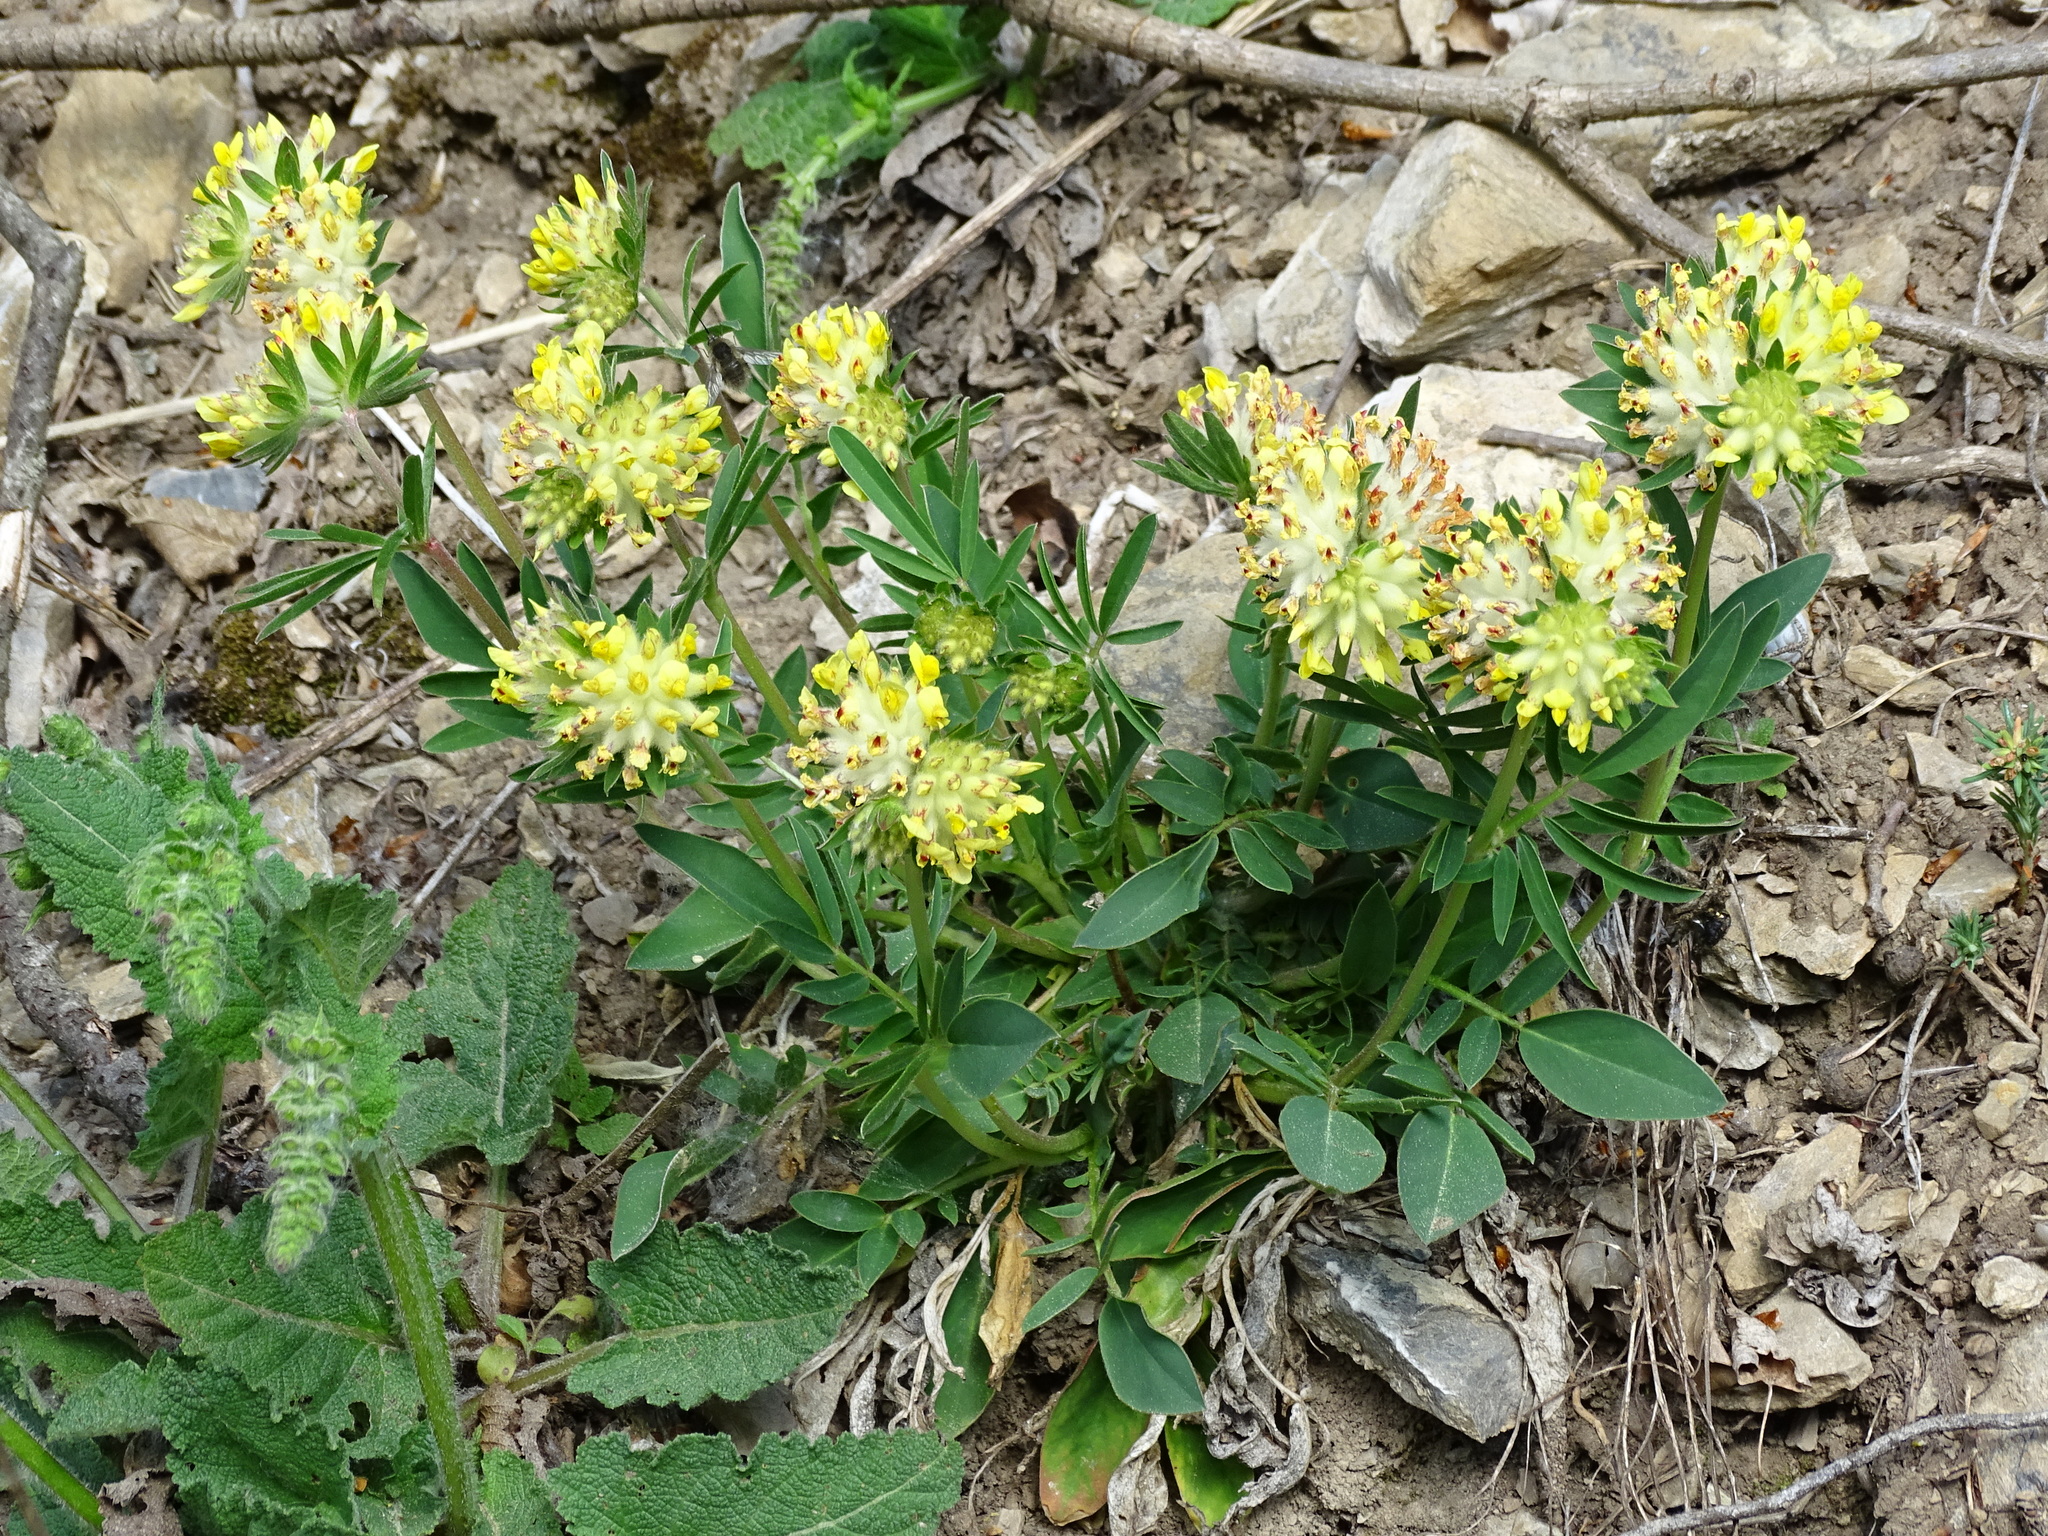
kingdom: Plantae
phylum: Tracheophyta
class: Magnoliopsida
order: Fabales
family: Fabaceae
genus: Anthyllis
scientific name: Anthyllis vulneraria
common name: Kidney vetch
